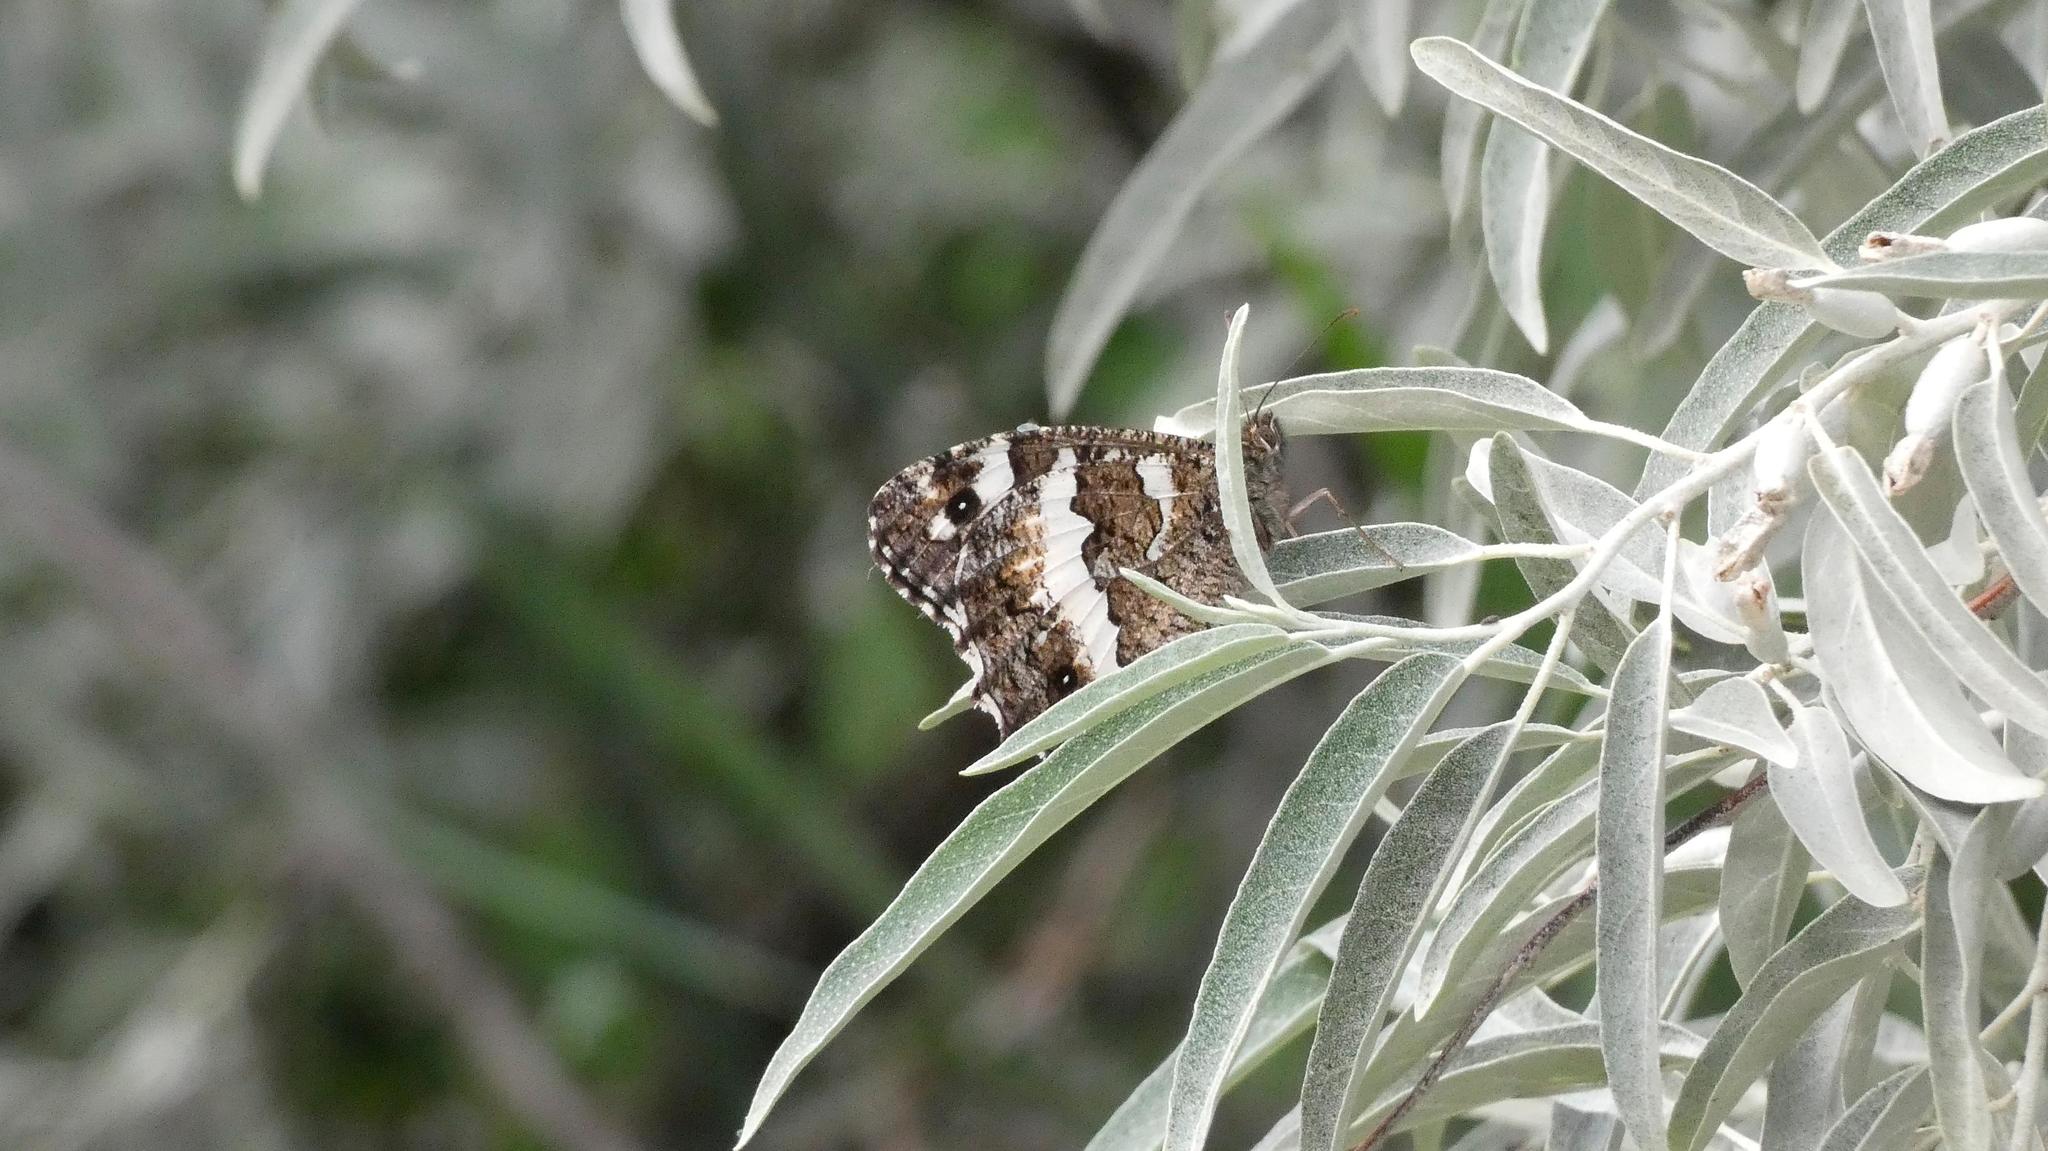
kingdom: Animalia
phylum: Arthropoda
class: Insecta
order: Lepidoptera
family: Lycaenidae
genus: Loweia
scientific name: Loweia tityrus
